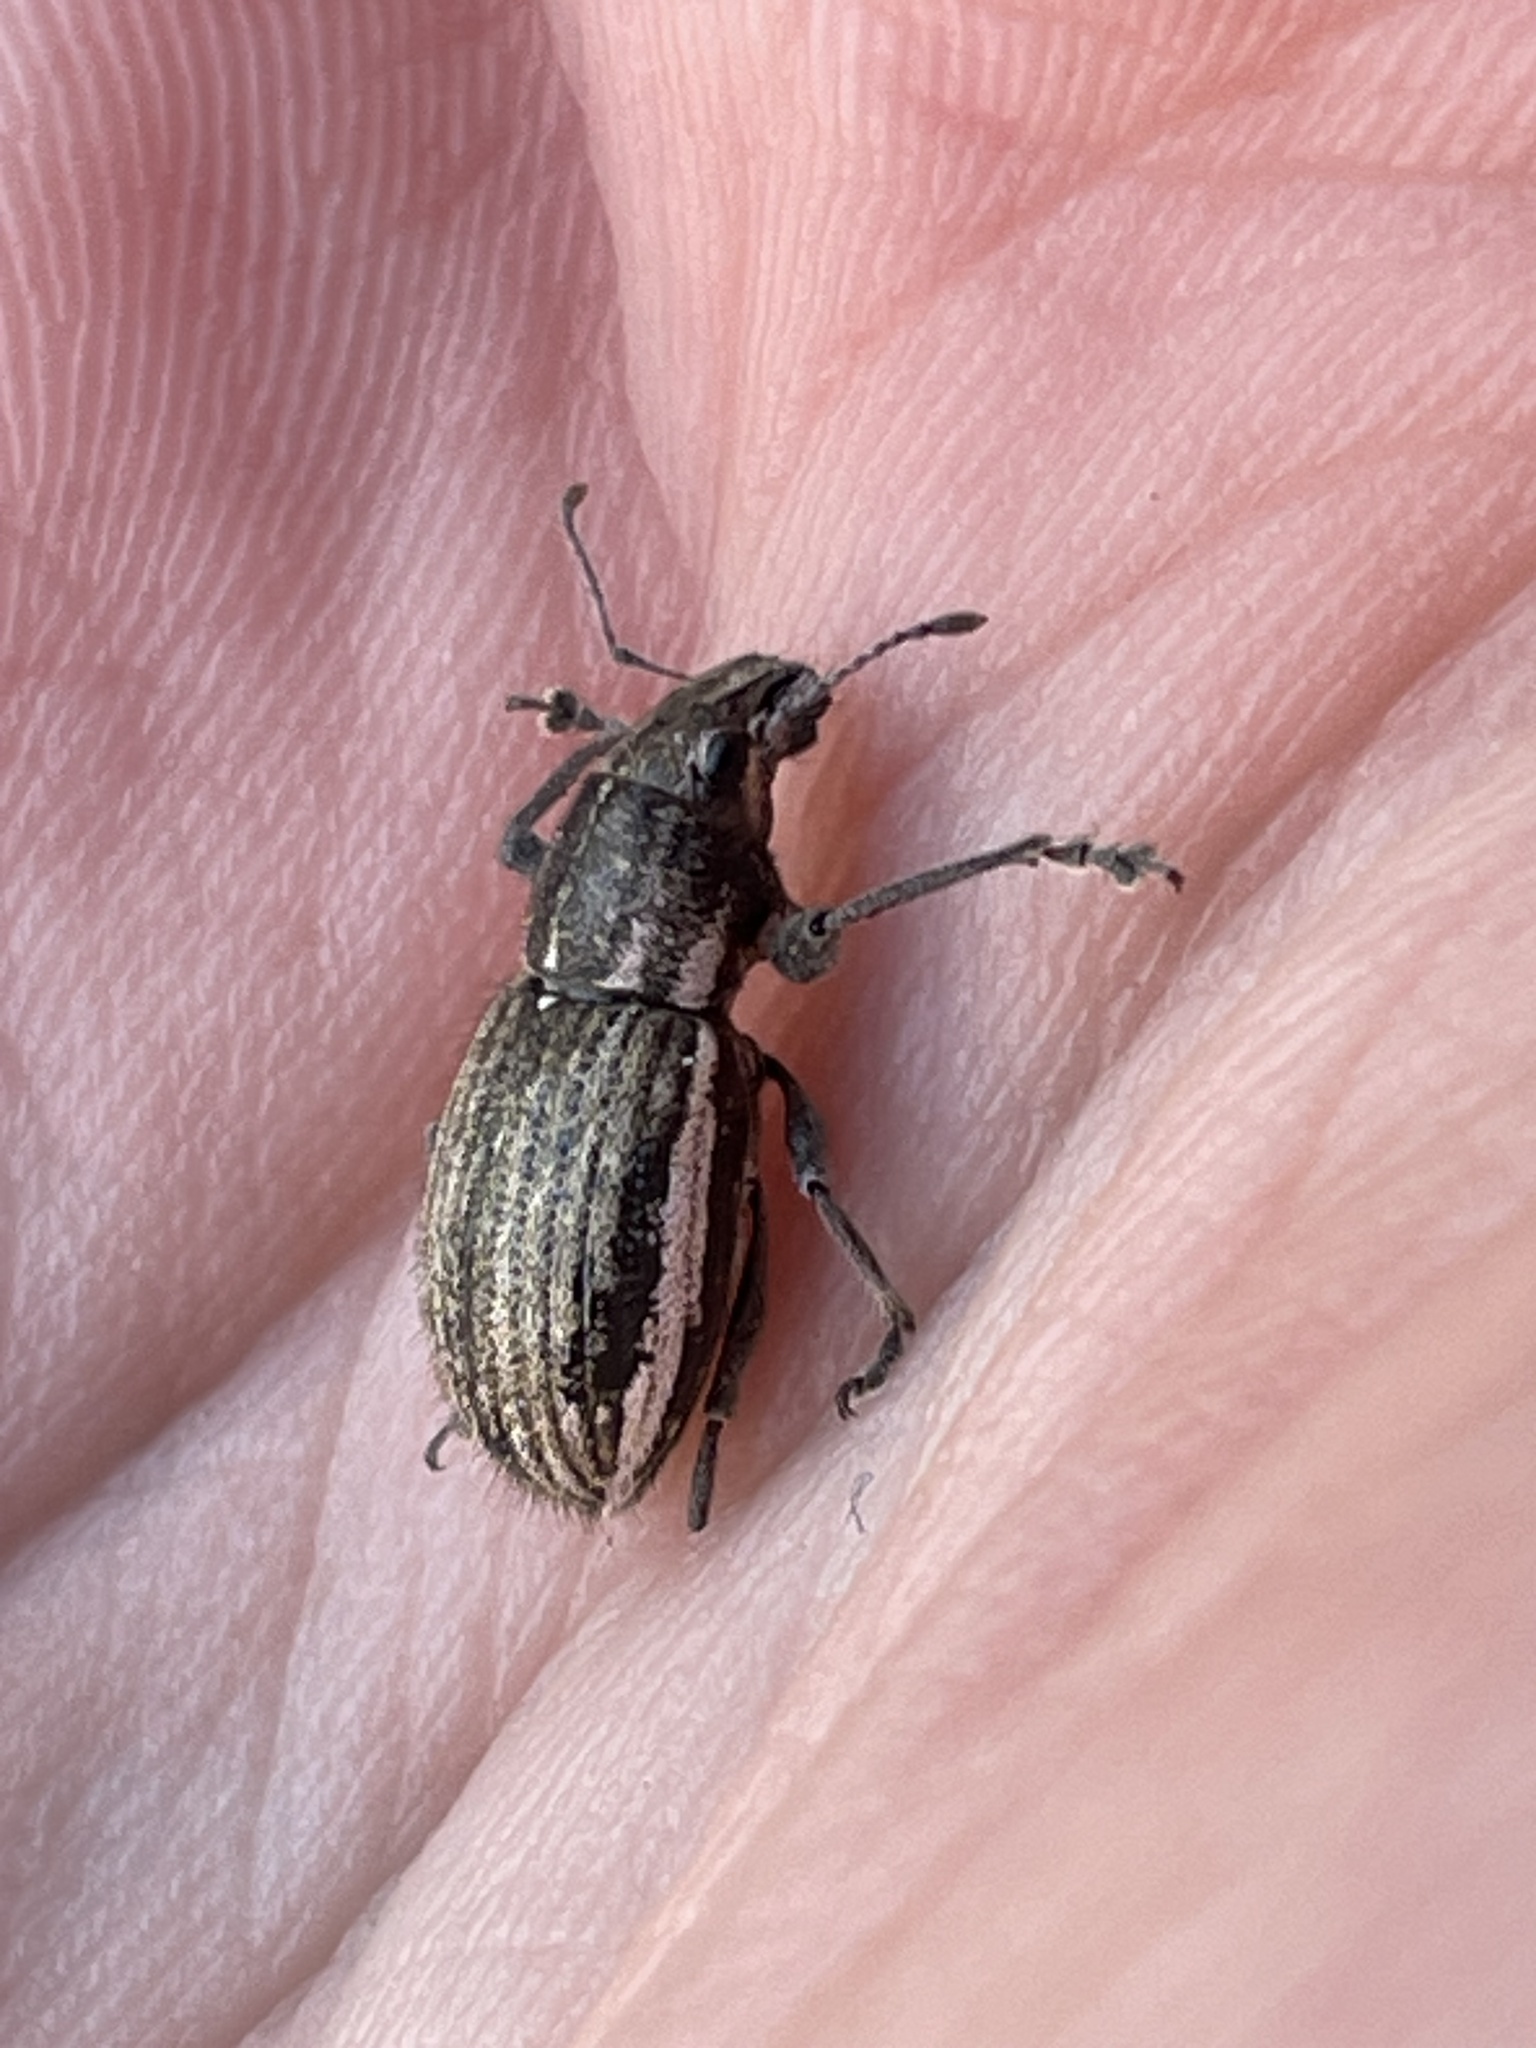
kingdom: Animalia
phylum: Arthropoda
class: Insecta
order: Coleoptera
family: Curculionidae
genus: Naupactus
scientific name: Naupactus leucoloma
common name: Whitefringed beetle
